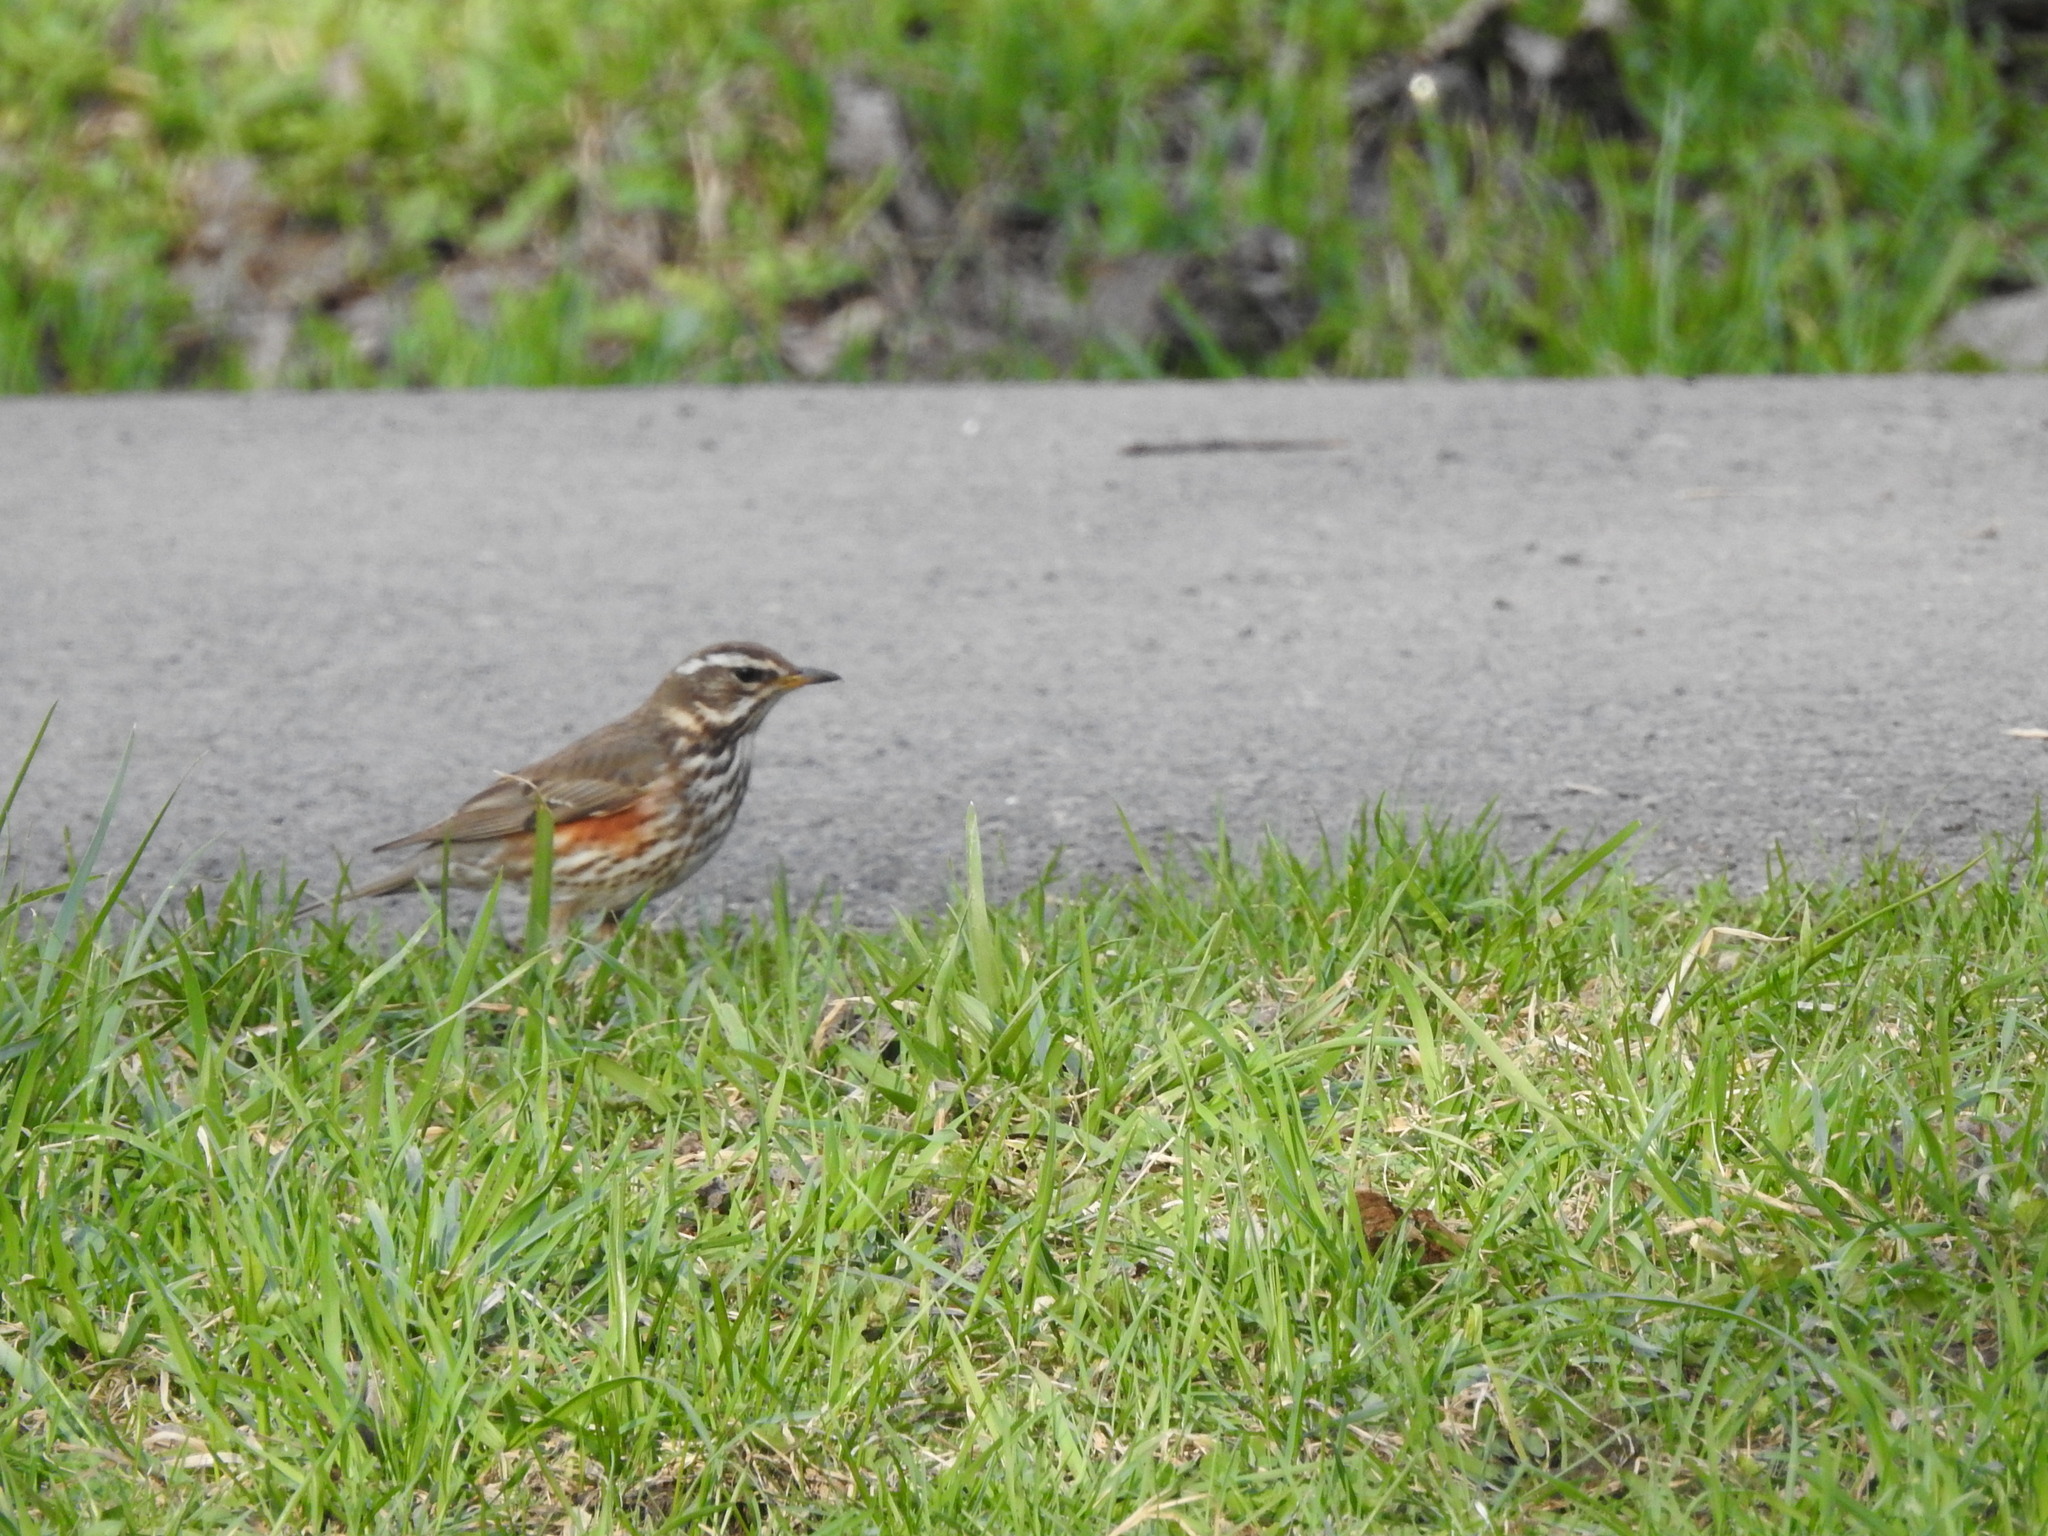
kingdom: Animalia
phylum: Chordata
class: Aves
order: Passeriformes
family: Turdidae
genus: Turdus
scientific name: Turdus iliacus
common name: Redwing
